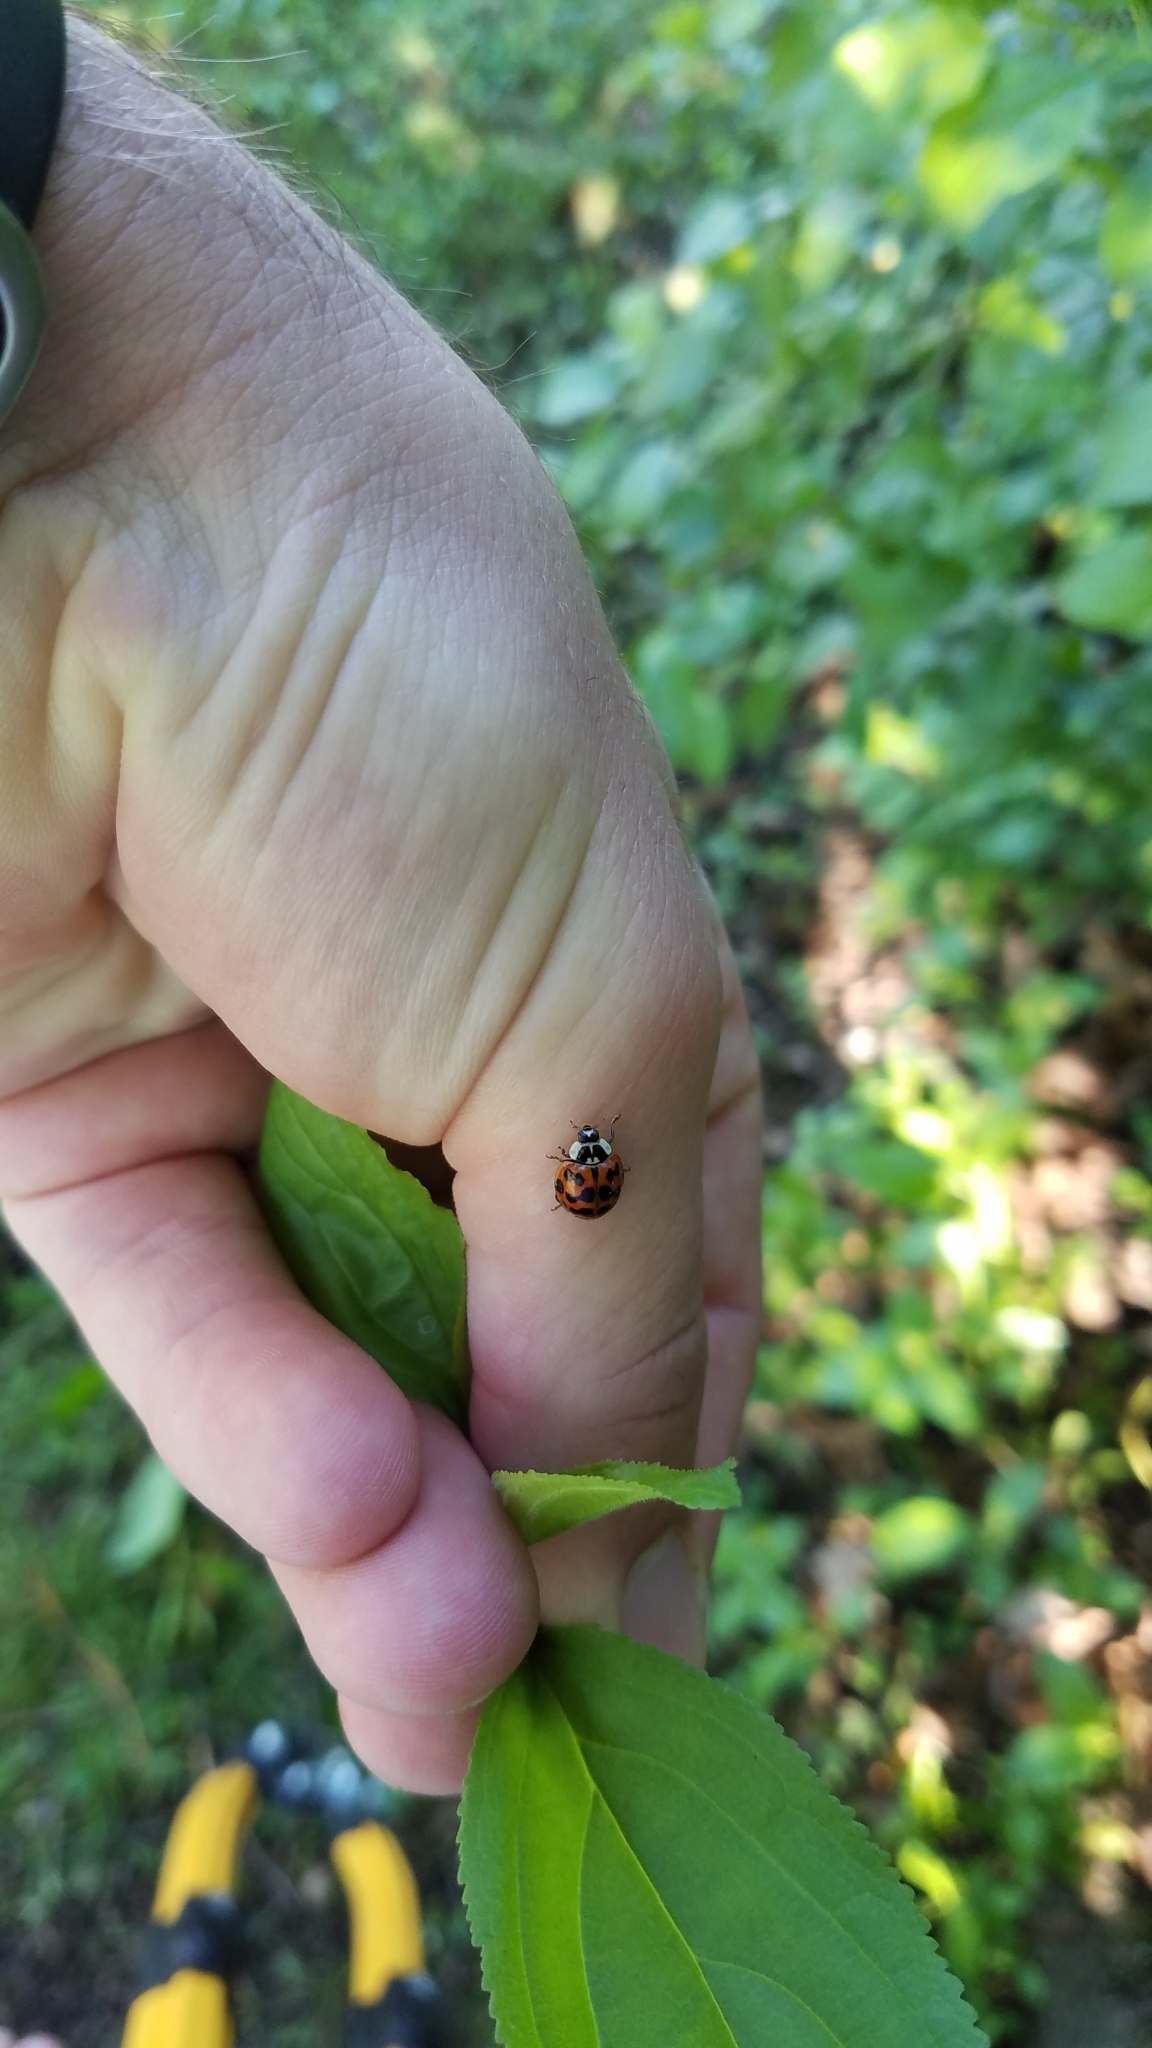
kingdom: Animalia
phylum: Arthropoda
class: Insecta
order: Coleoptera
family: Coccinellidae
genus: Harmonia
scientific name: Harmonia axyridis
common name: Harlequin ladybird
